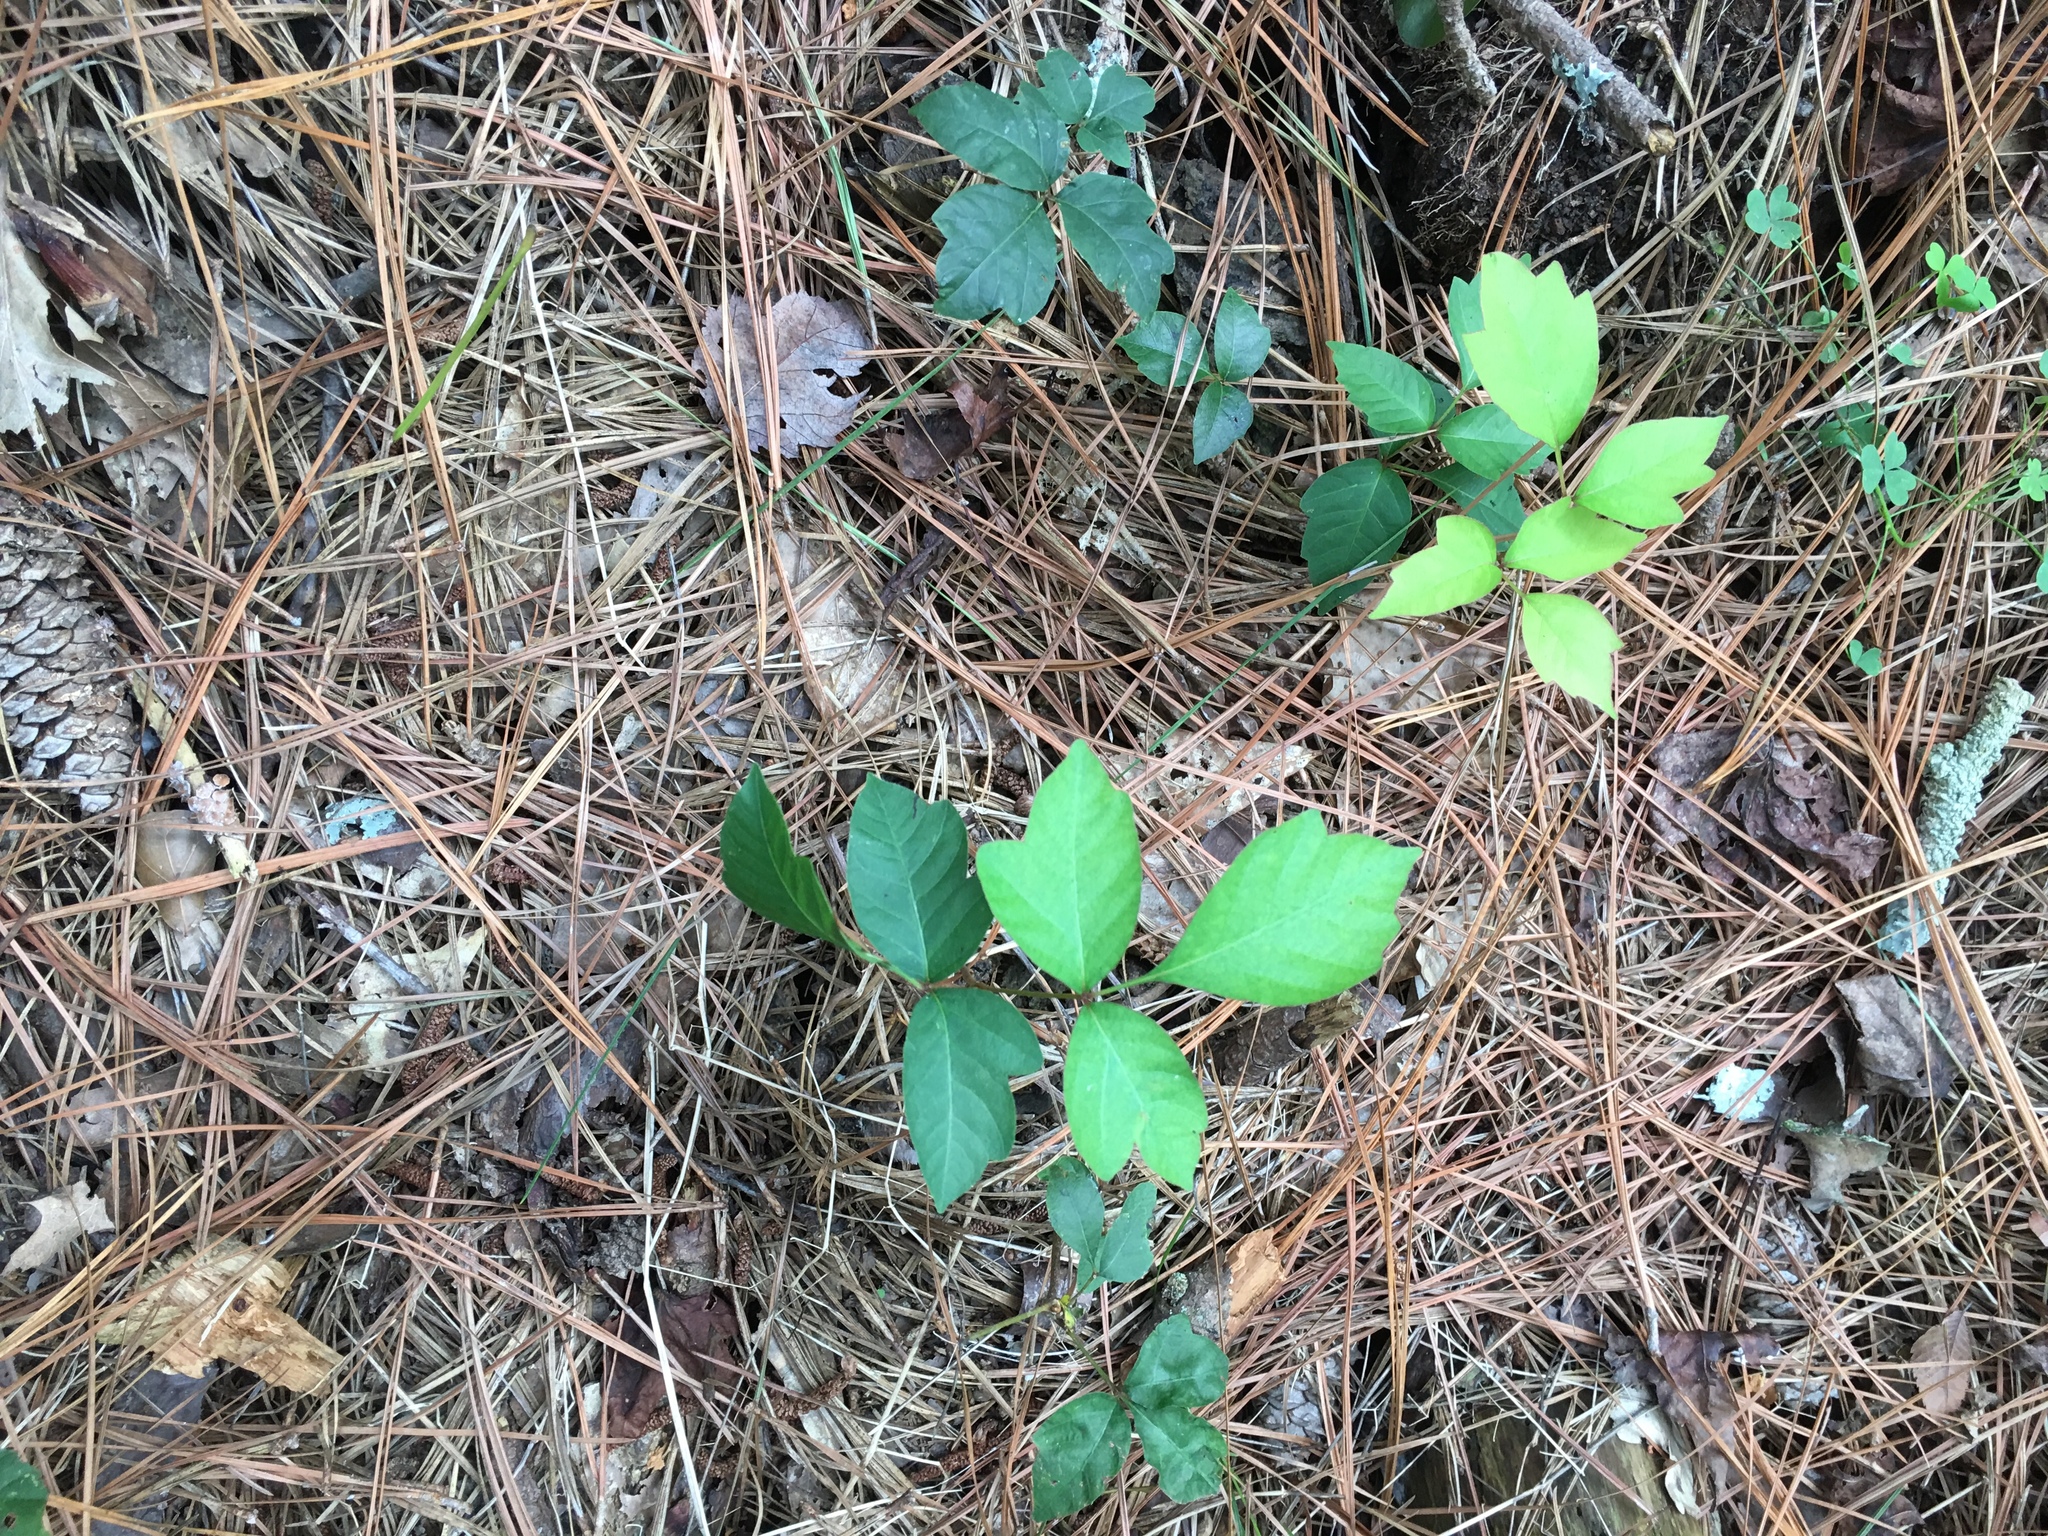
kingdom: Plantae
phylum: Tracheophyta
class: Magnoliopsida
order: Sapindales
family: Anacardiaceae
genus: Toxicodendron
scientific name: Toxicodendron radicans
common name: Poison ivy
